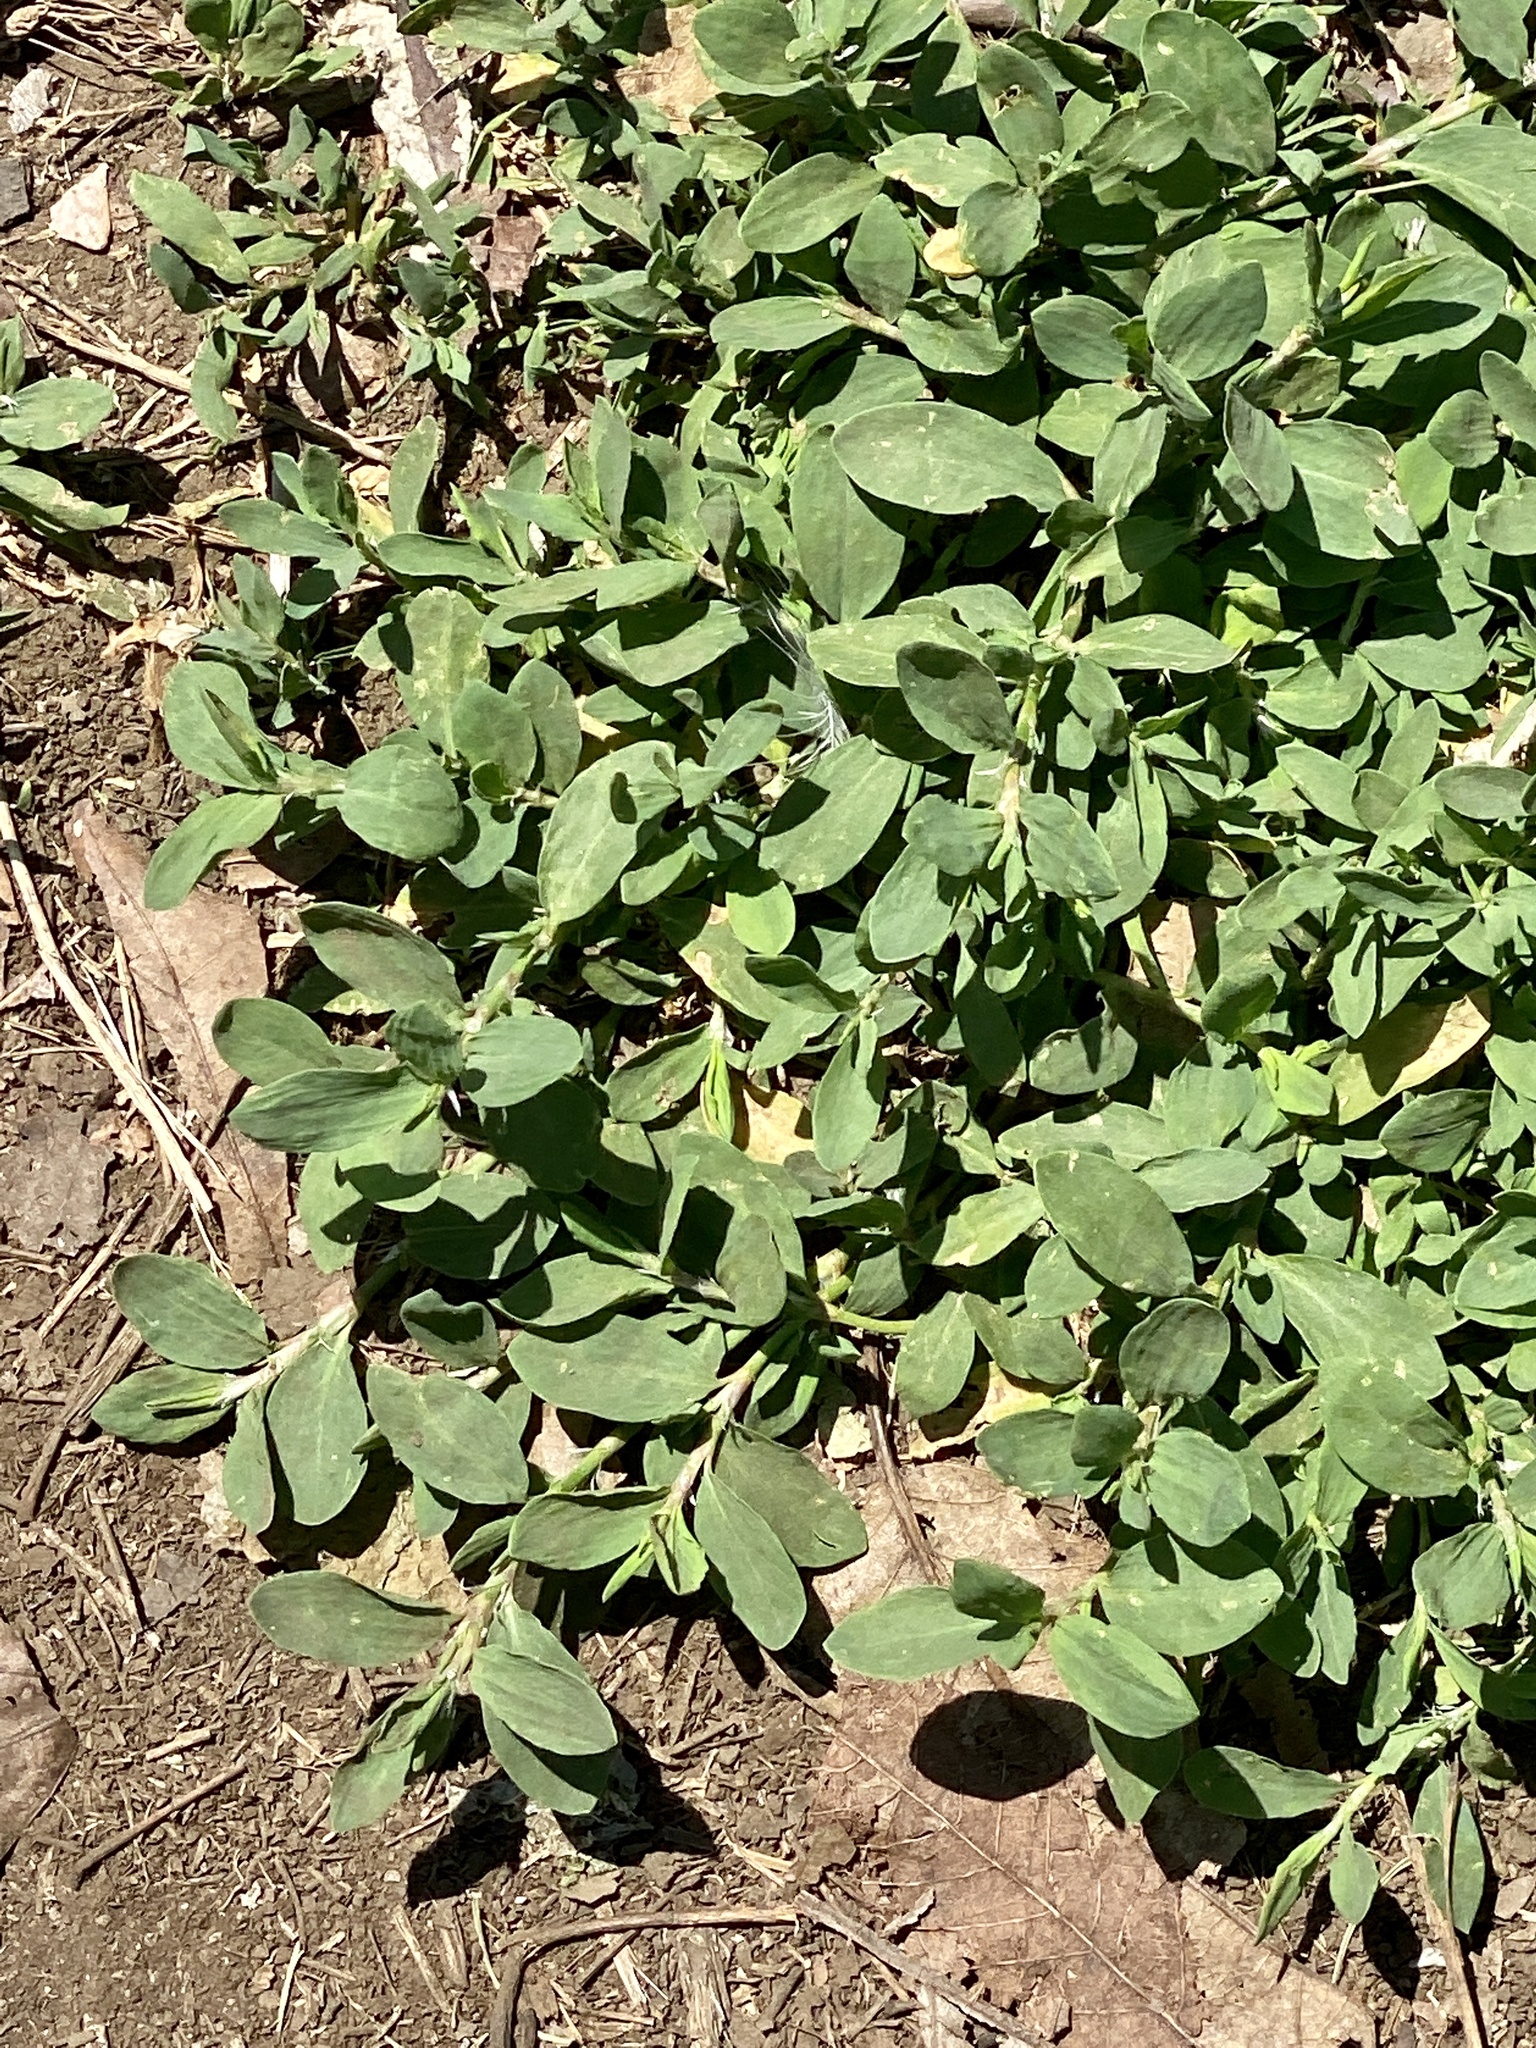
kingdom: Plantae
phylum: Tracheophyta
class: Magnoliopsida
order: Caryophyllales
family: Polygonaceae
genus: Polygonum
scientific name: Polygonum aviculare
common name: Prostrate knotweed
